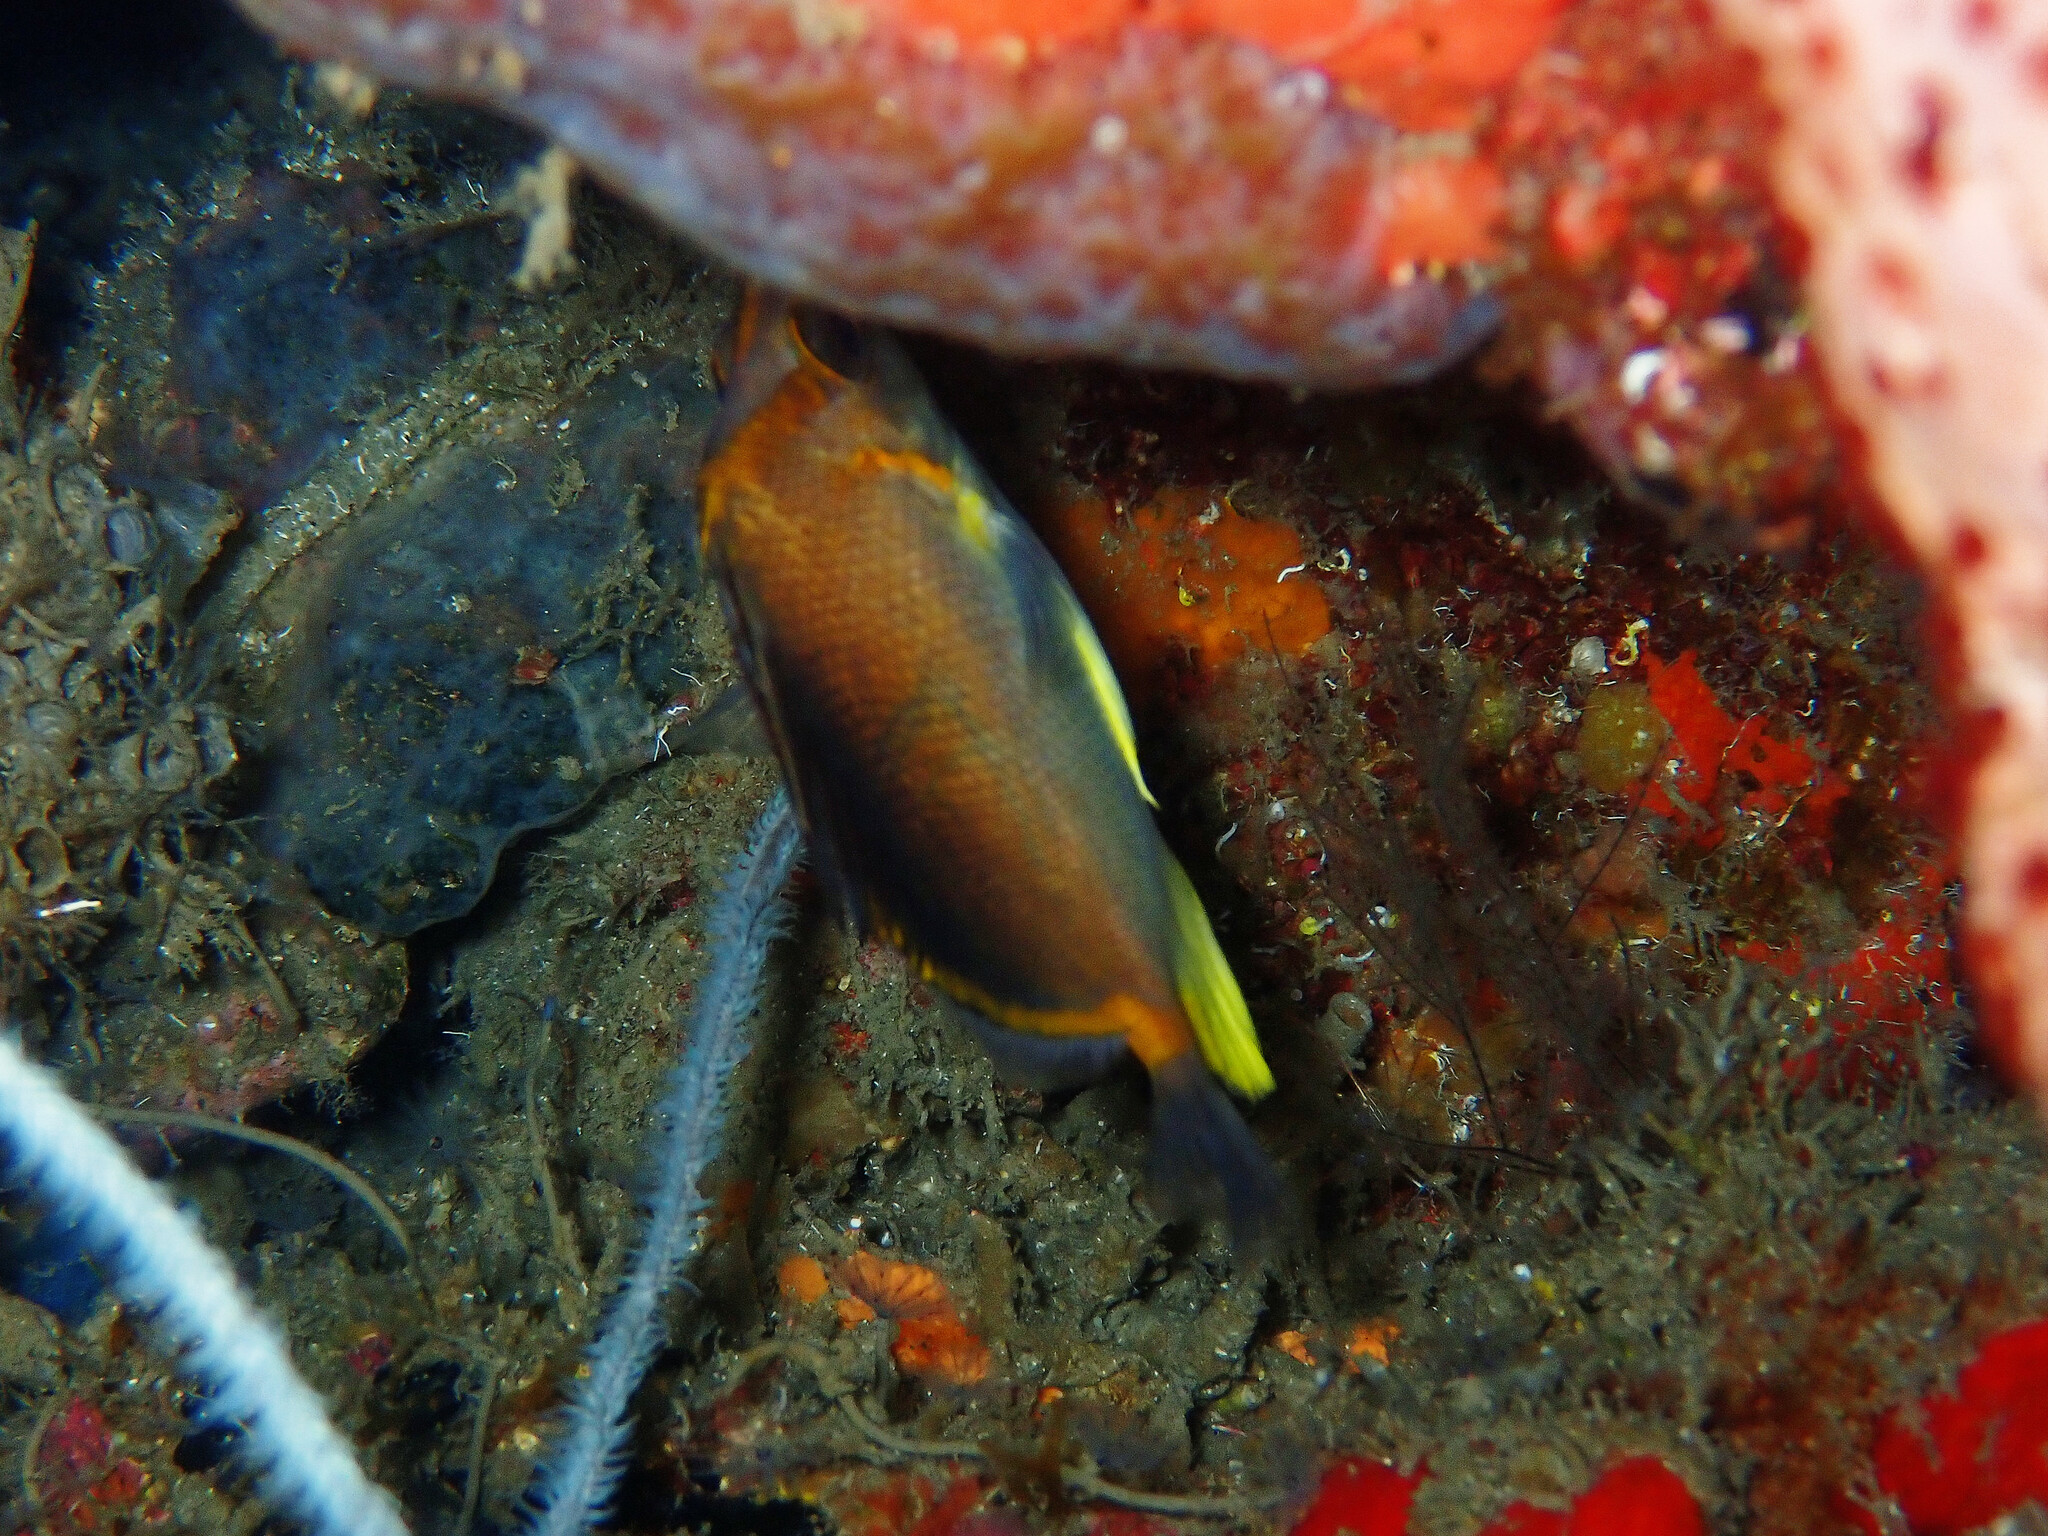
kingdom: Animalia
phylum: Chordata
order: Perciformes
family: Chaetodontidae
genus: Prognathodes
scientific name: Prognathodes aculeatus
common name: Longsnout butterflyfish
